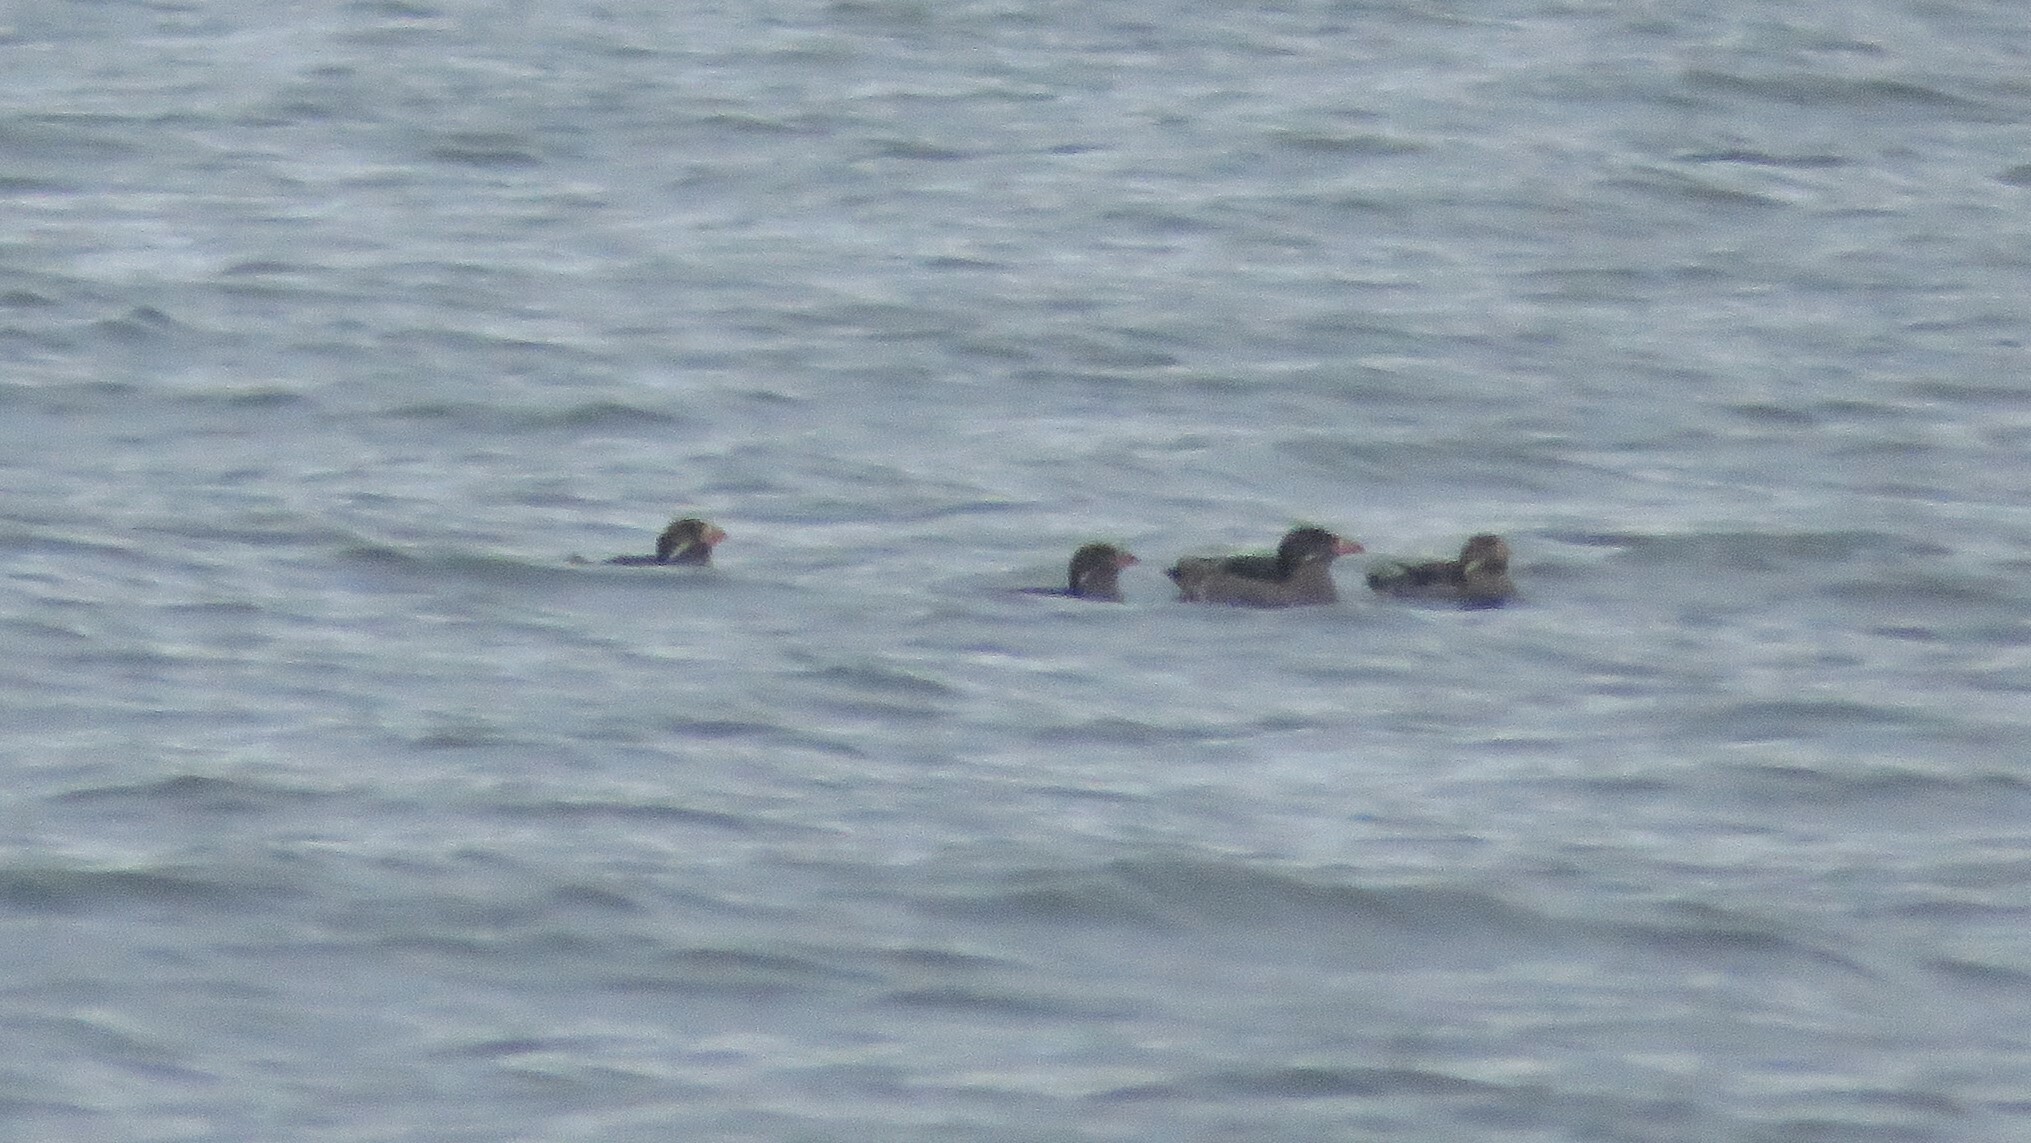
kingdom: Animalia
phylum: Chordata
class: Aves
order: Charadriiformes
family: Alcidae
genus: Cerorhinca
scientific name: Cerorhinca monocerata
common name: Rhinoceros auklet
